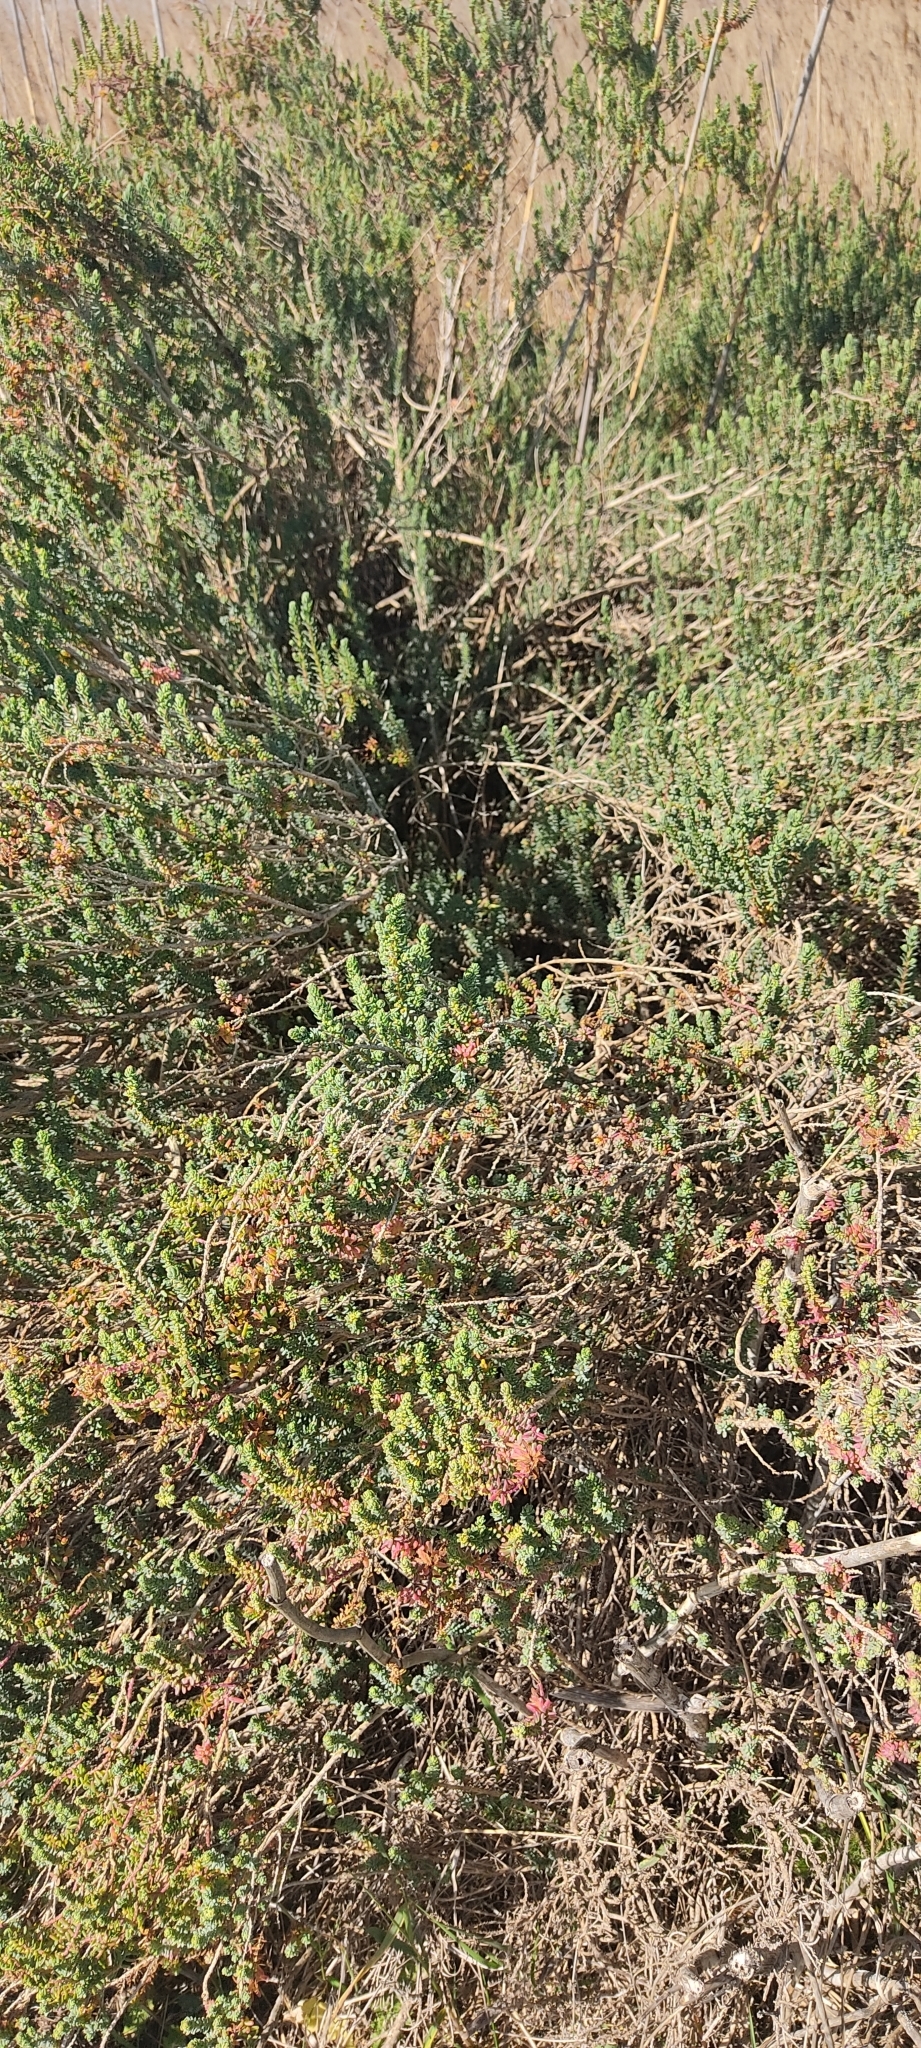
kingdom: Plantae
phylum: Tracheophyta
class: Magnoliopsida
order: Caryophyllales
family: Amaranthaceae
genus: Suaeda
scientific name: Suaeda vera
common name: Shrubby sea-blite
